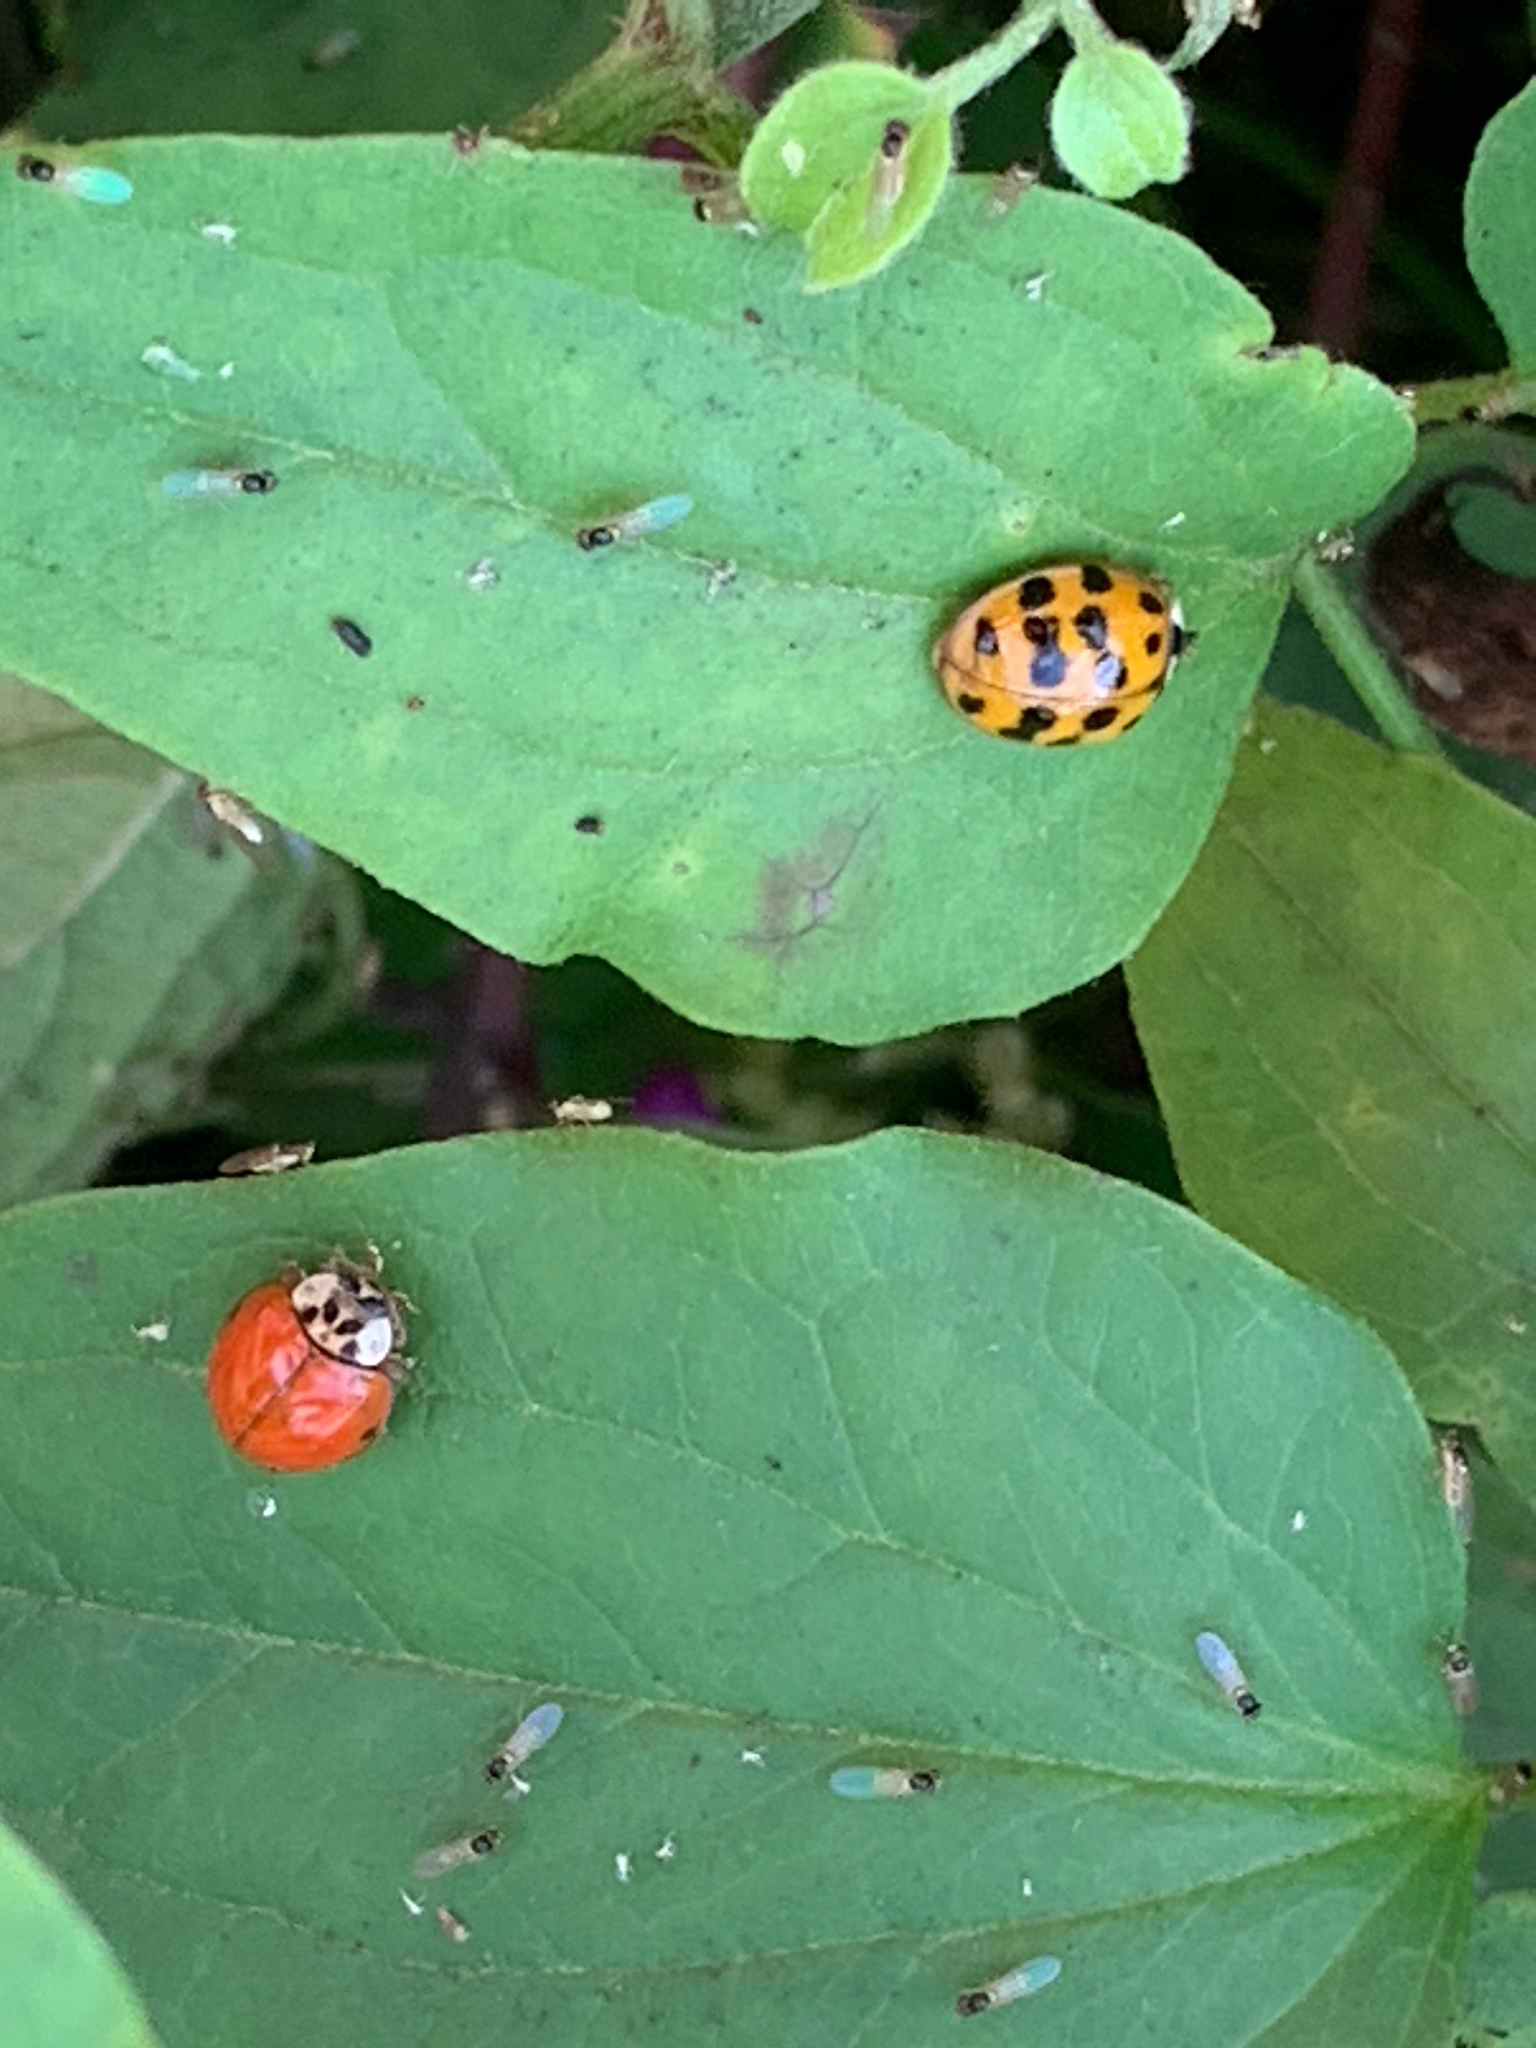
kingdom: Animalia
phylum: Arthropoda
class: Insecta
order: Coleoptera
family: Coccinellidae
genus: Harmonia
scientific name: Harmonia axyridis
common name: Harlequin ladybird
